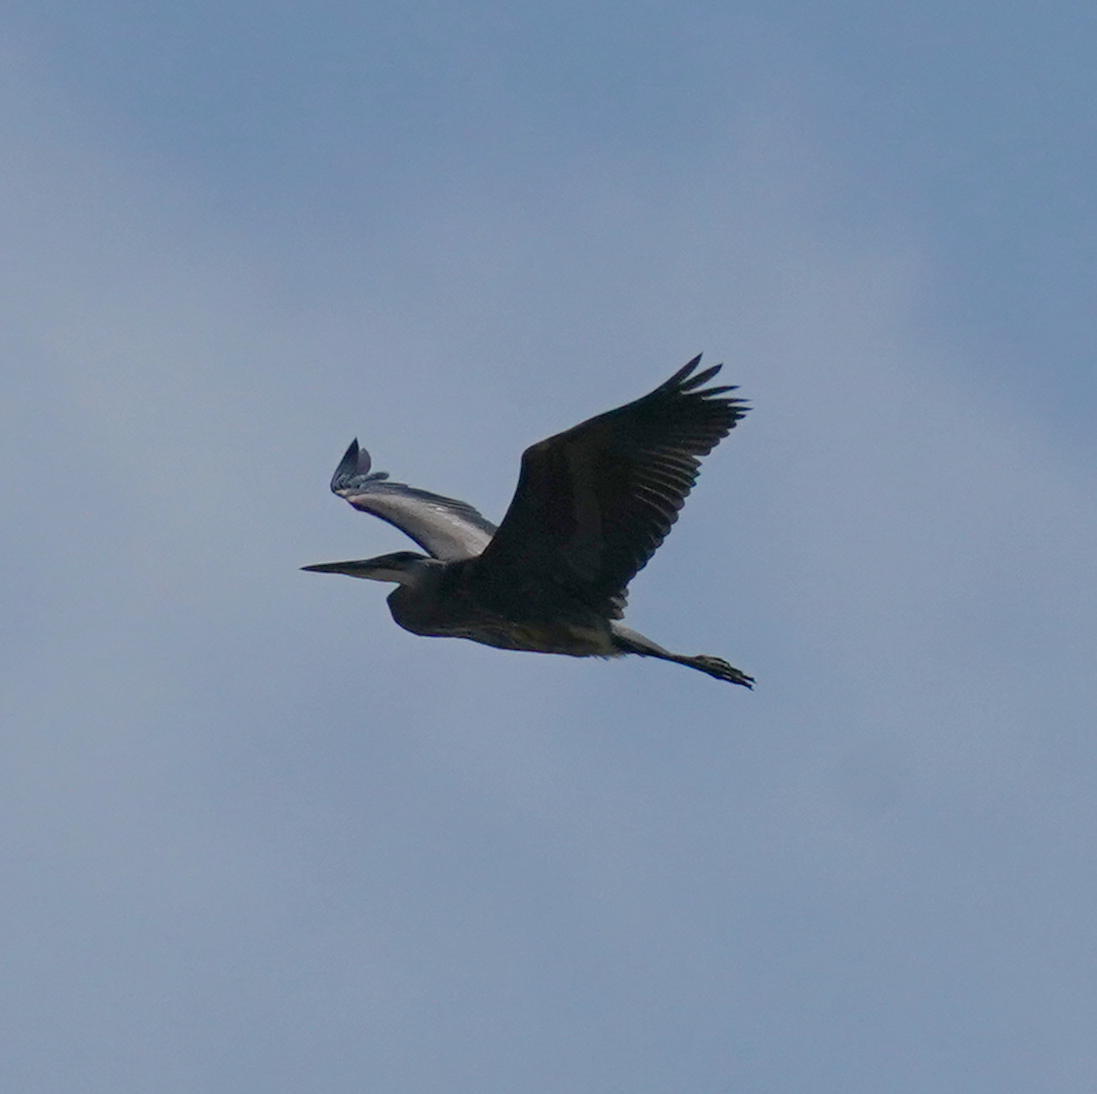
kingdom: Animalia
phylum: Chordata
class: Aves
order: Pelecaniformes
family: Ardeidae
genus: Ardea
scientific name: Ardea herodias
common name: Great blue heron
